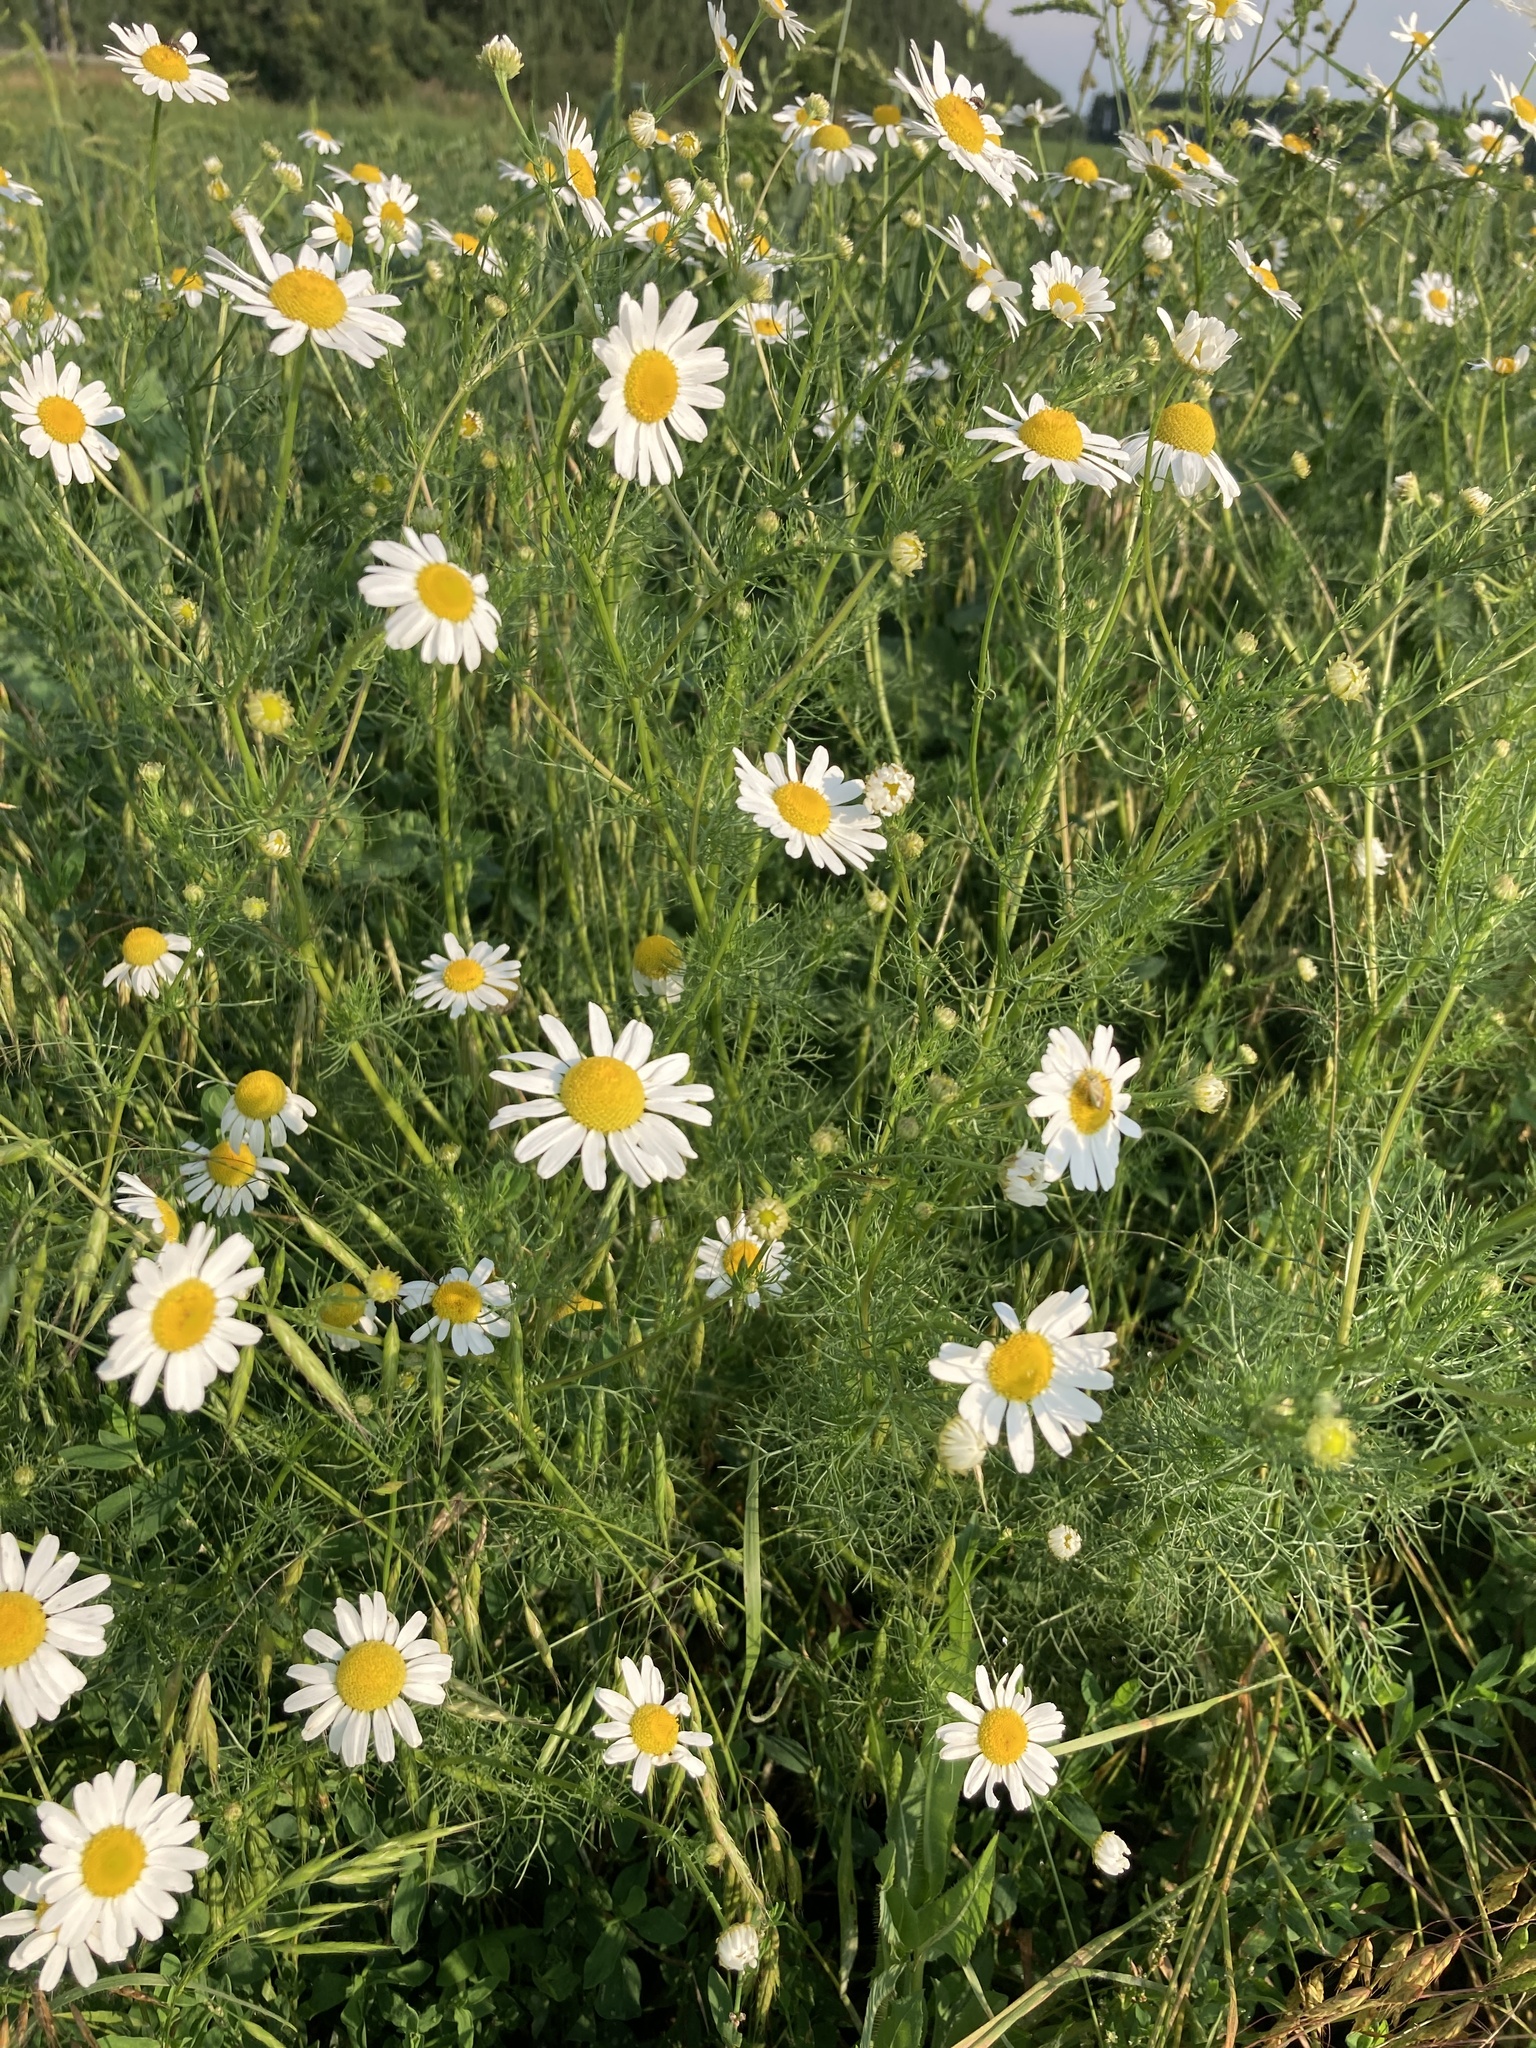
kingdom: Plantae
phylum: Tracheophyta
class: Magnoliopsida
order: Asterales
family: Asteraceae
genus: Tripleurospermum
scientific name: Tripleurospermum inodorum
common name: Scentless mayweed
